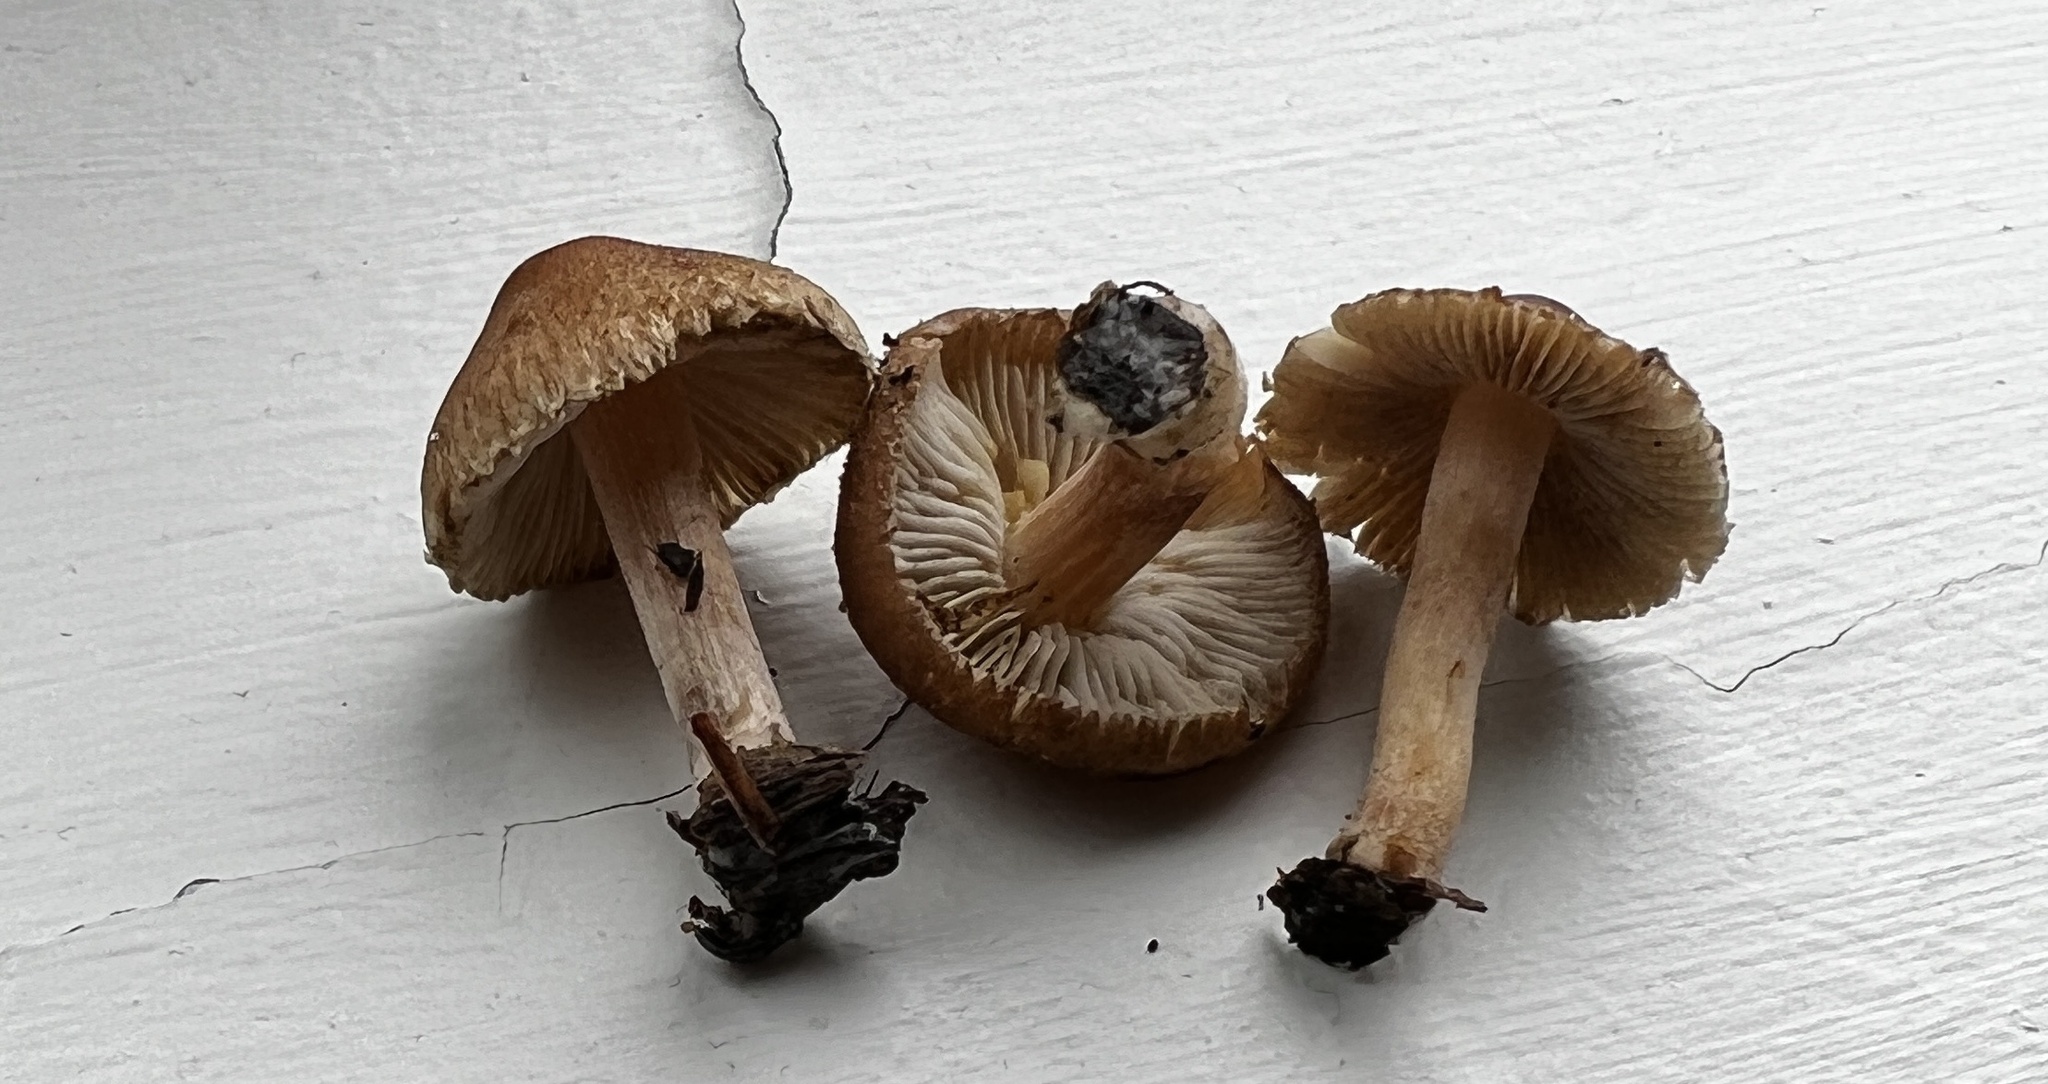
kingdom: Fungi
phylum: Basidiomycota
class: Agaricomycetes
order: Agaricales
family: Inocybaceae
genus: Inocybe
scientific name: Inocybe fuscescentipes
